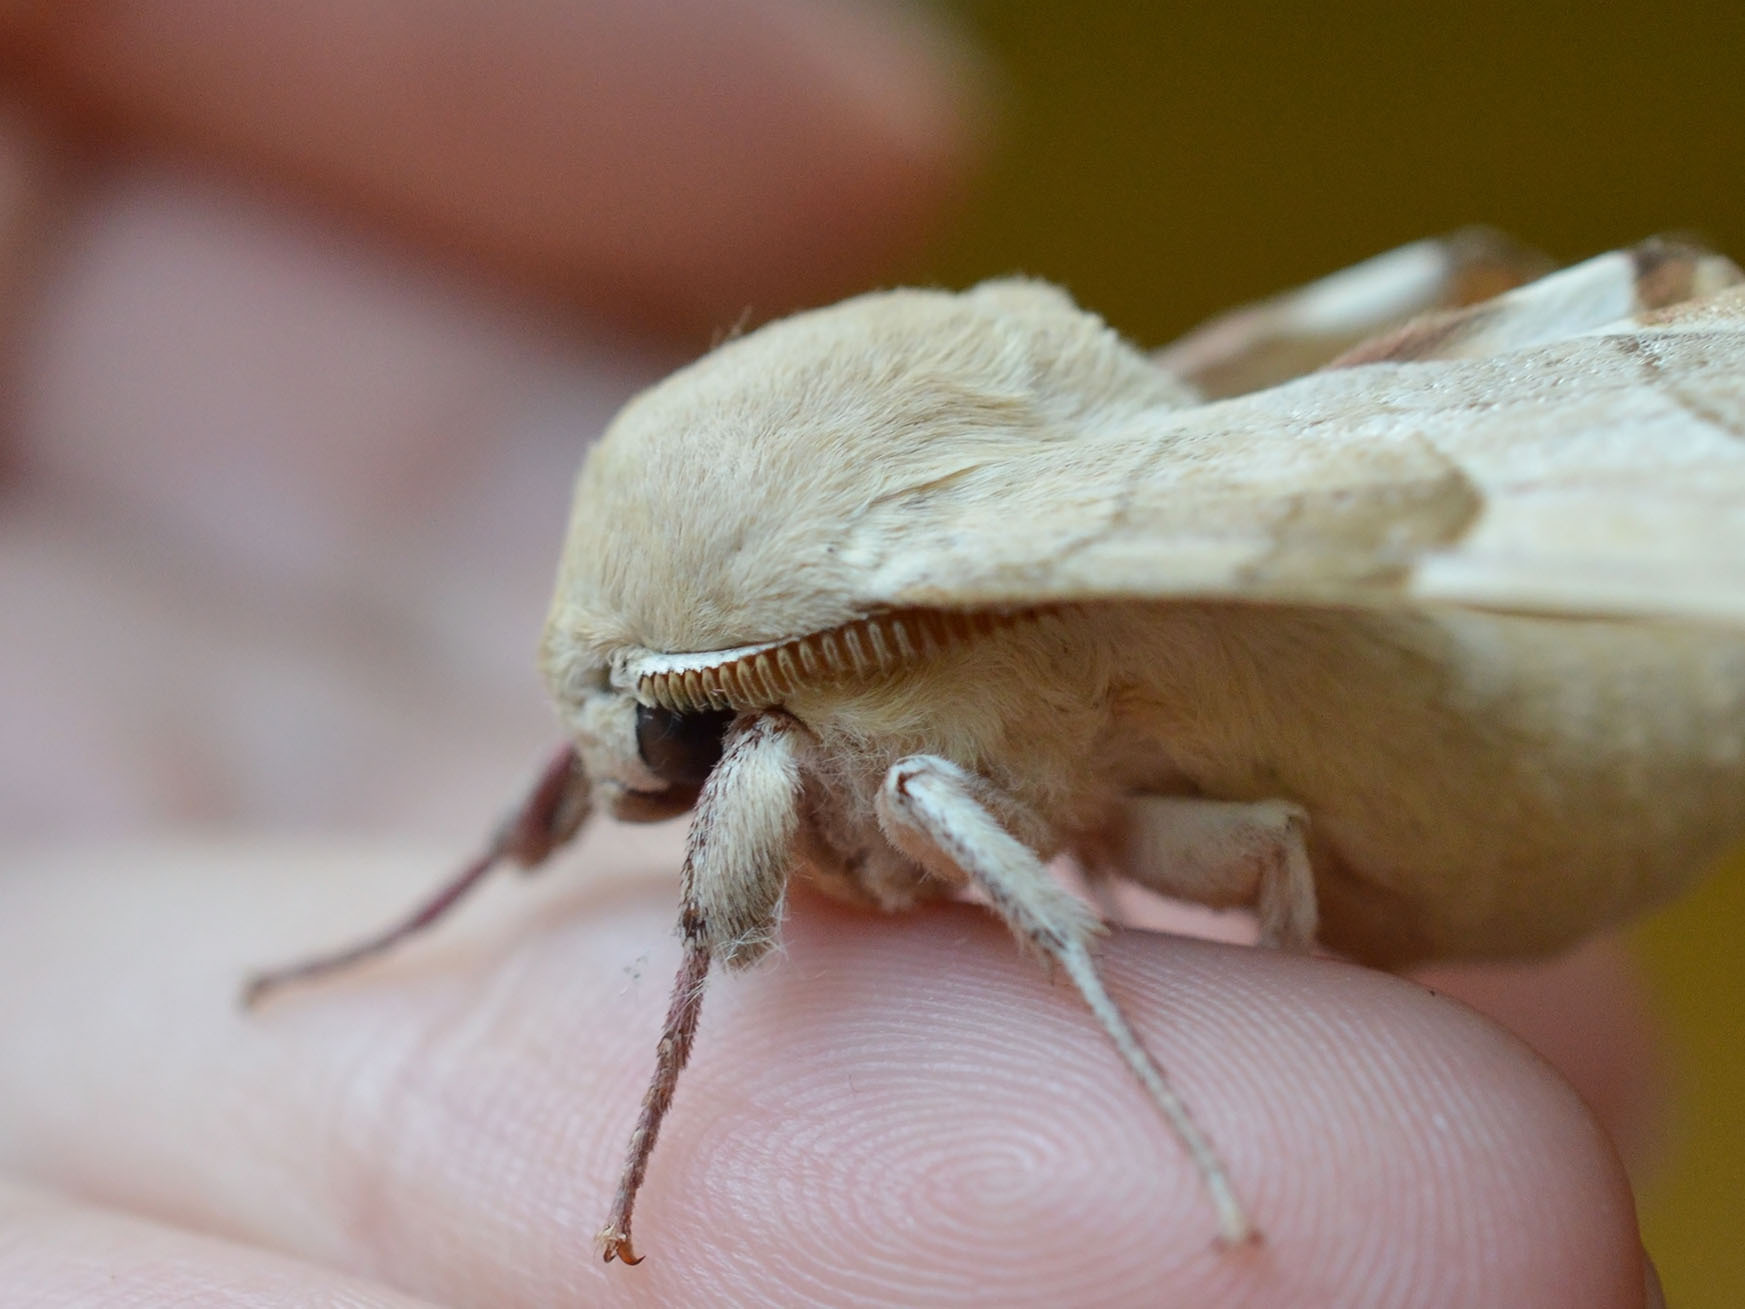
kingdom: Animalia
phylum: Arthropoda
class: Insecta
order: Lepidoptera
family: Sphingidae
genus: Marumba
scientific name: Marumba quercus
